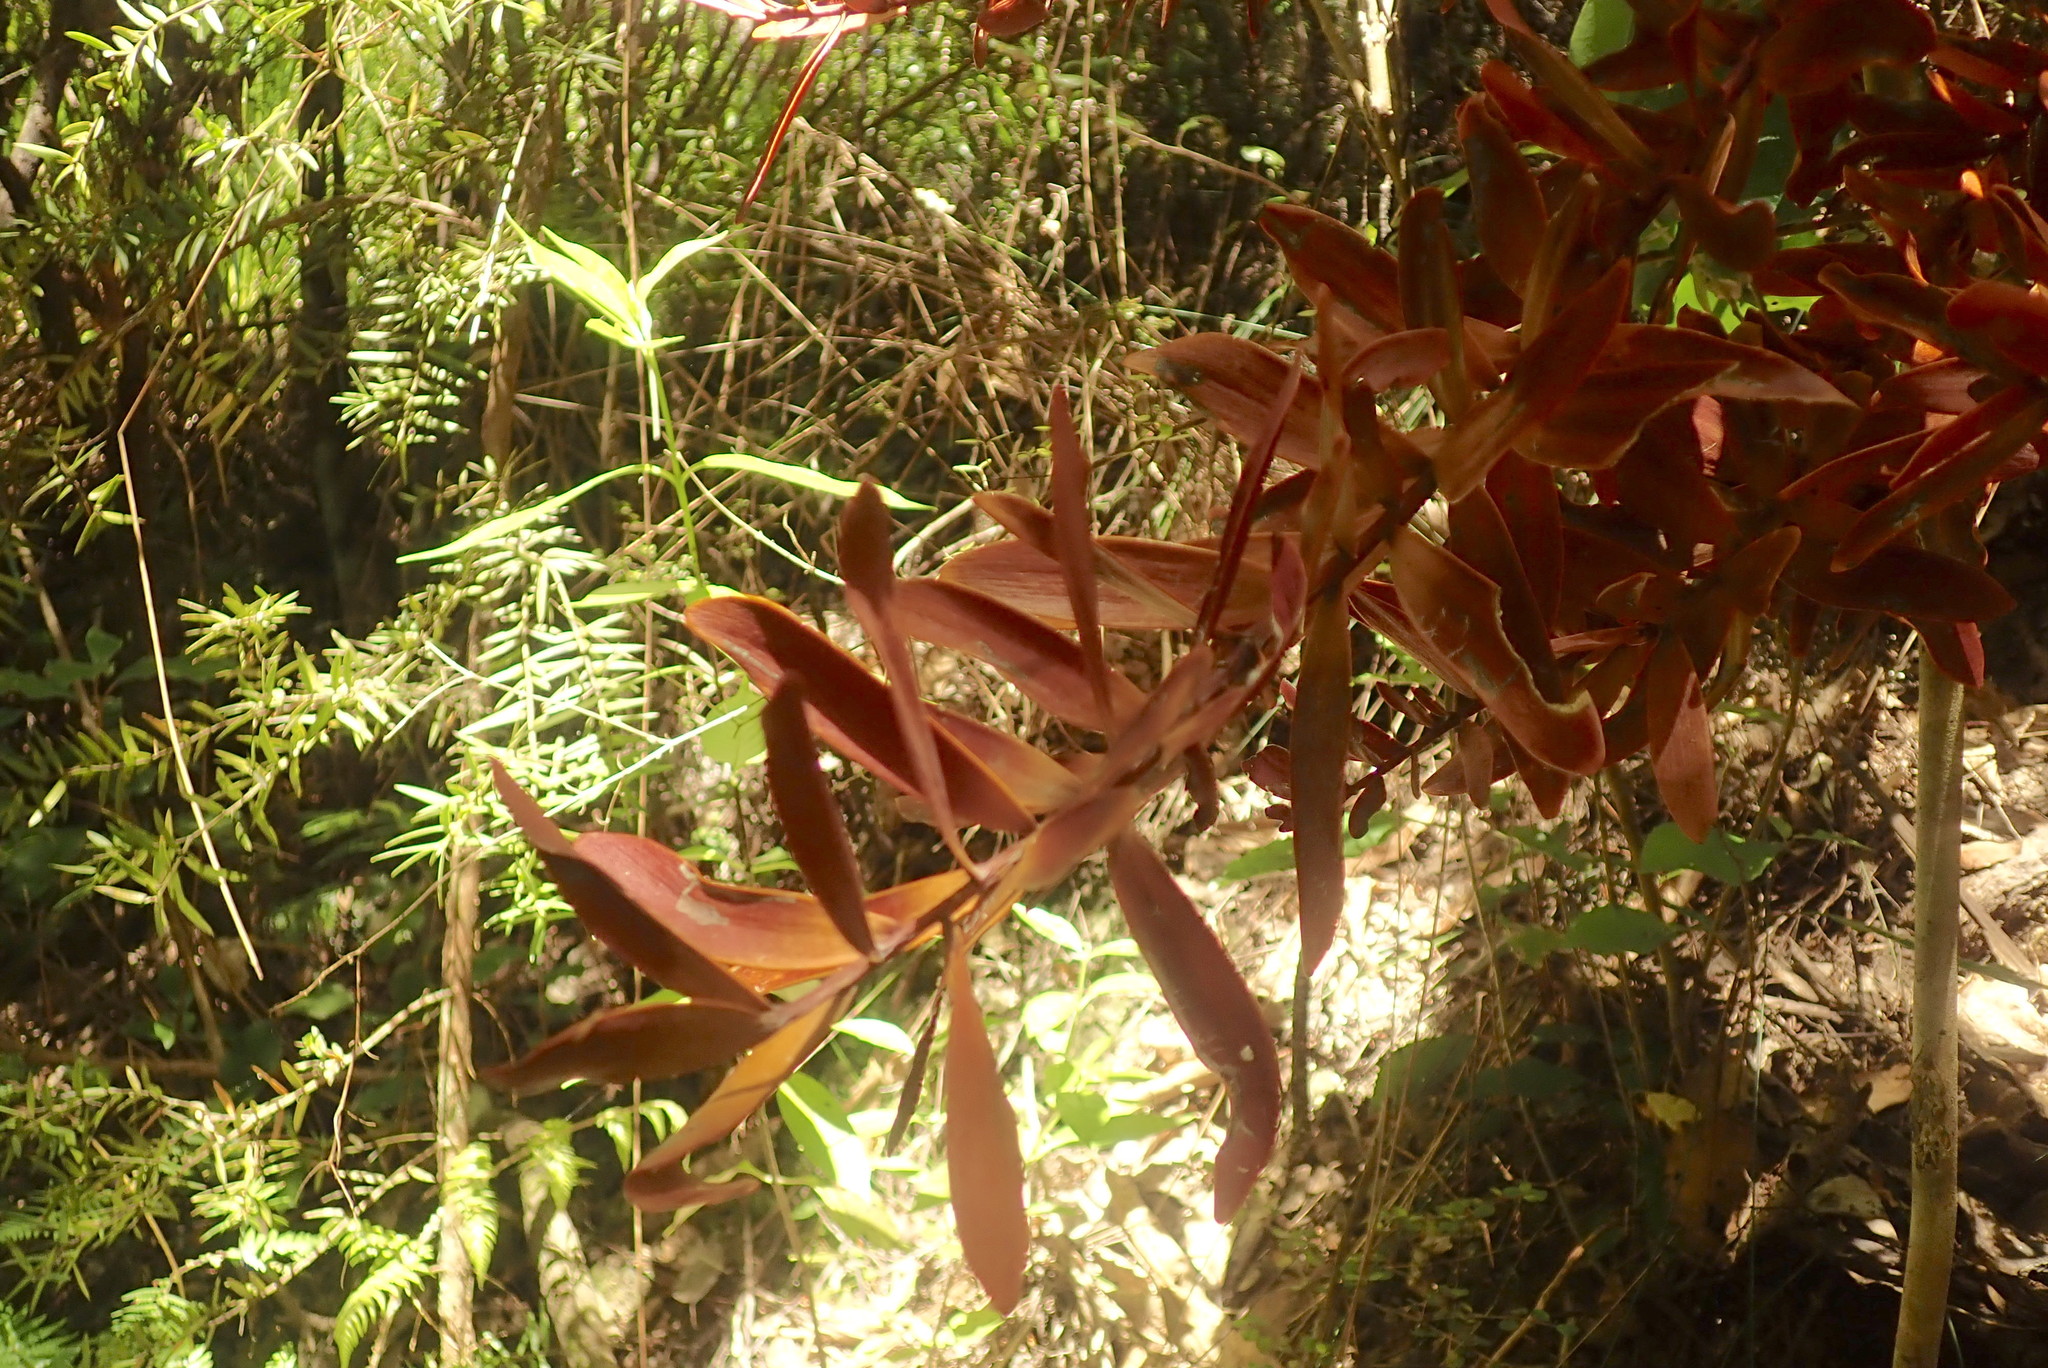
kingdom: Plantae
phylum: Tracheophyta
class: Pinopsida
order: Pinales
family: Podocarpaceae
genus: Podocarpus
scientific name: Podocarpus totara
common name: Totara
